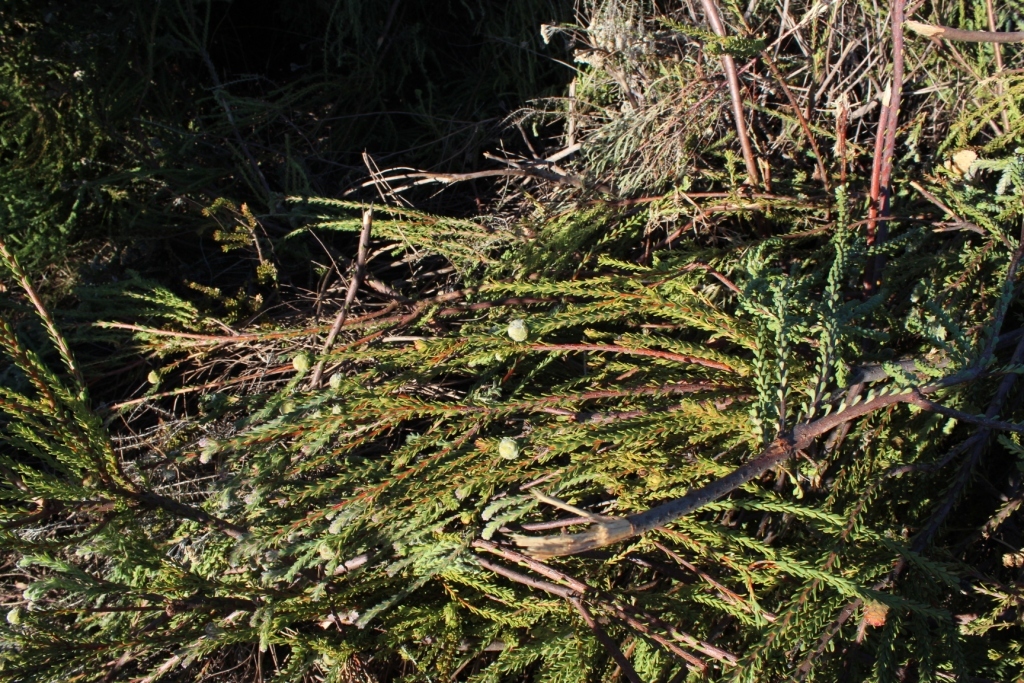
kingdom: Plantae
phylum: Tracheophyta
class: Magnoliopsida
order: Proteales
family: Proteaceae
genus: Leucadendron
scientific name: Leucadendron levisanus
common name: Cape flats conebush
